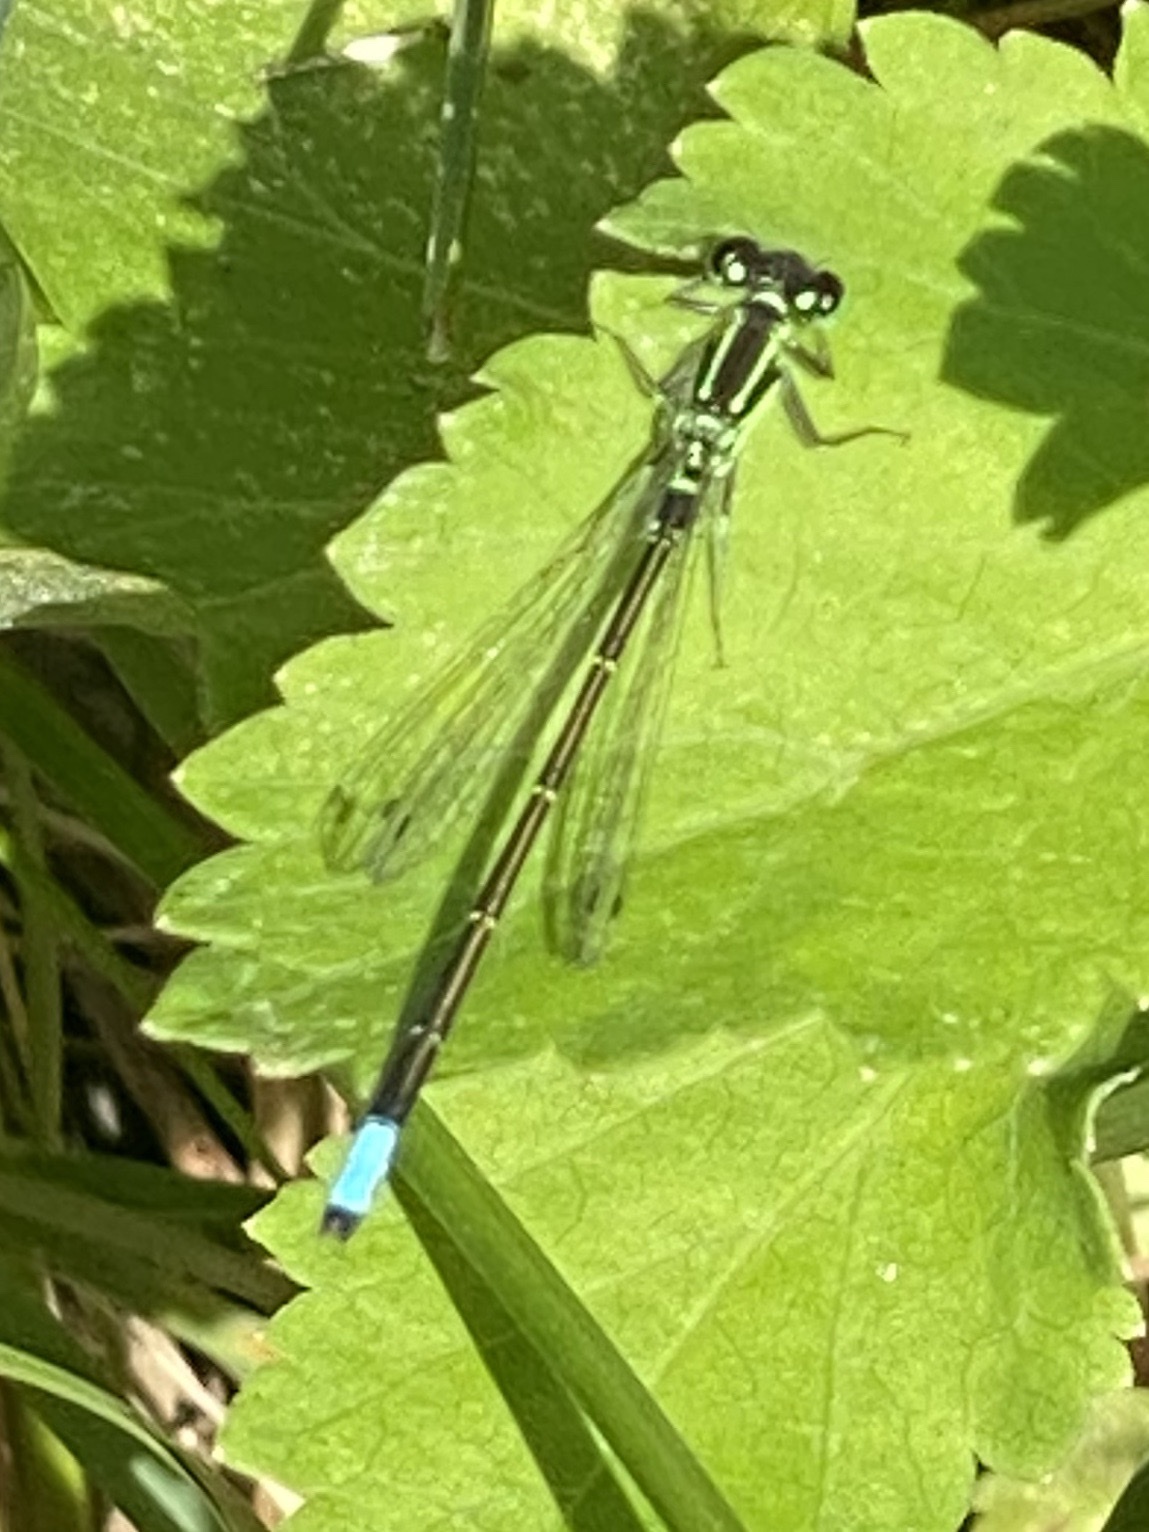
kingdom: Animalia
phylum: Arthropoda
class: Insecta
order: Odonata
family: Coenagrionidae
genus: Ischnura
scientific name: Ischnura verticalis
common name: Eastern forktail
